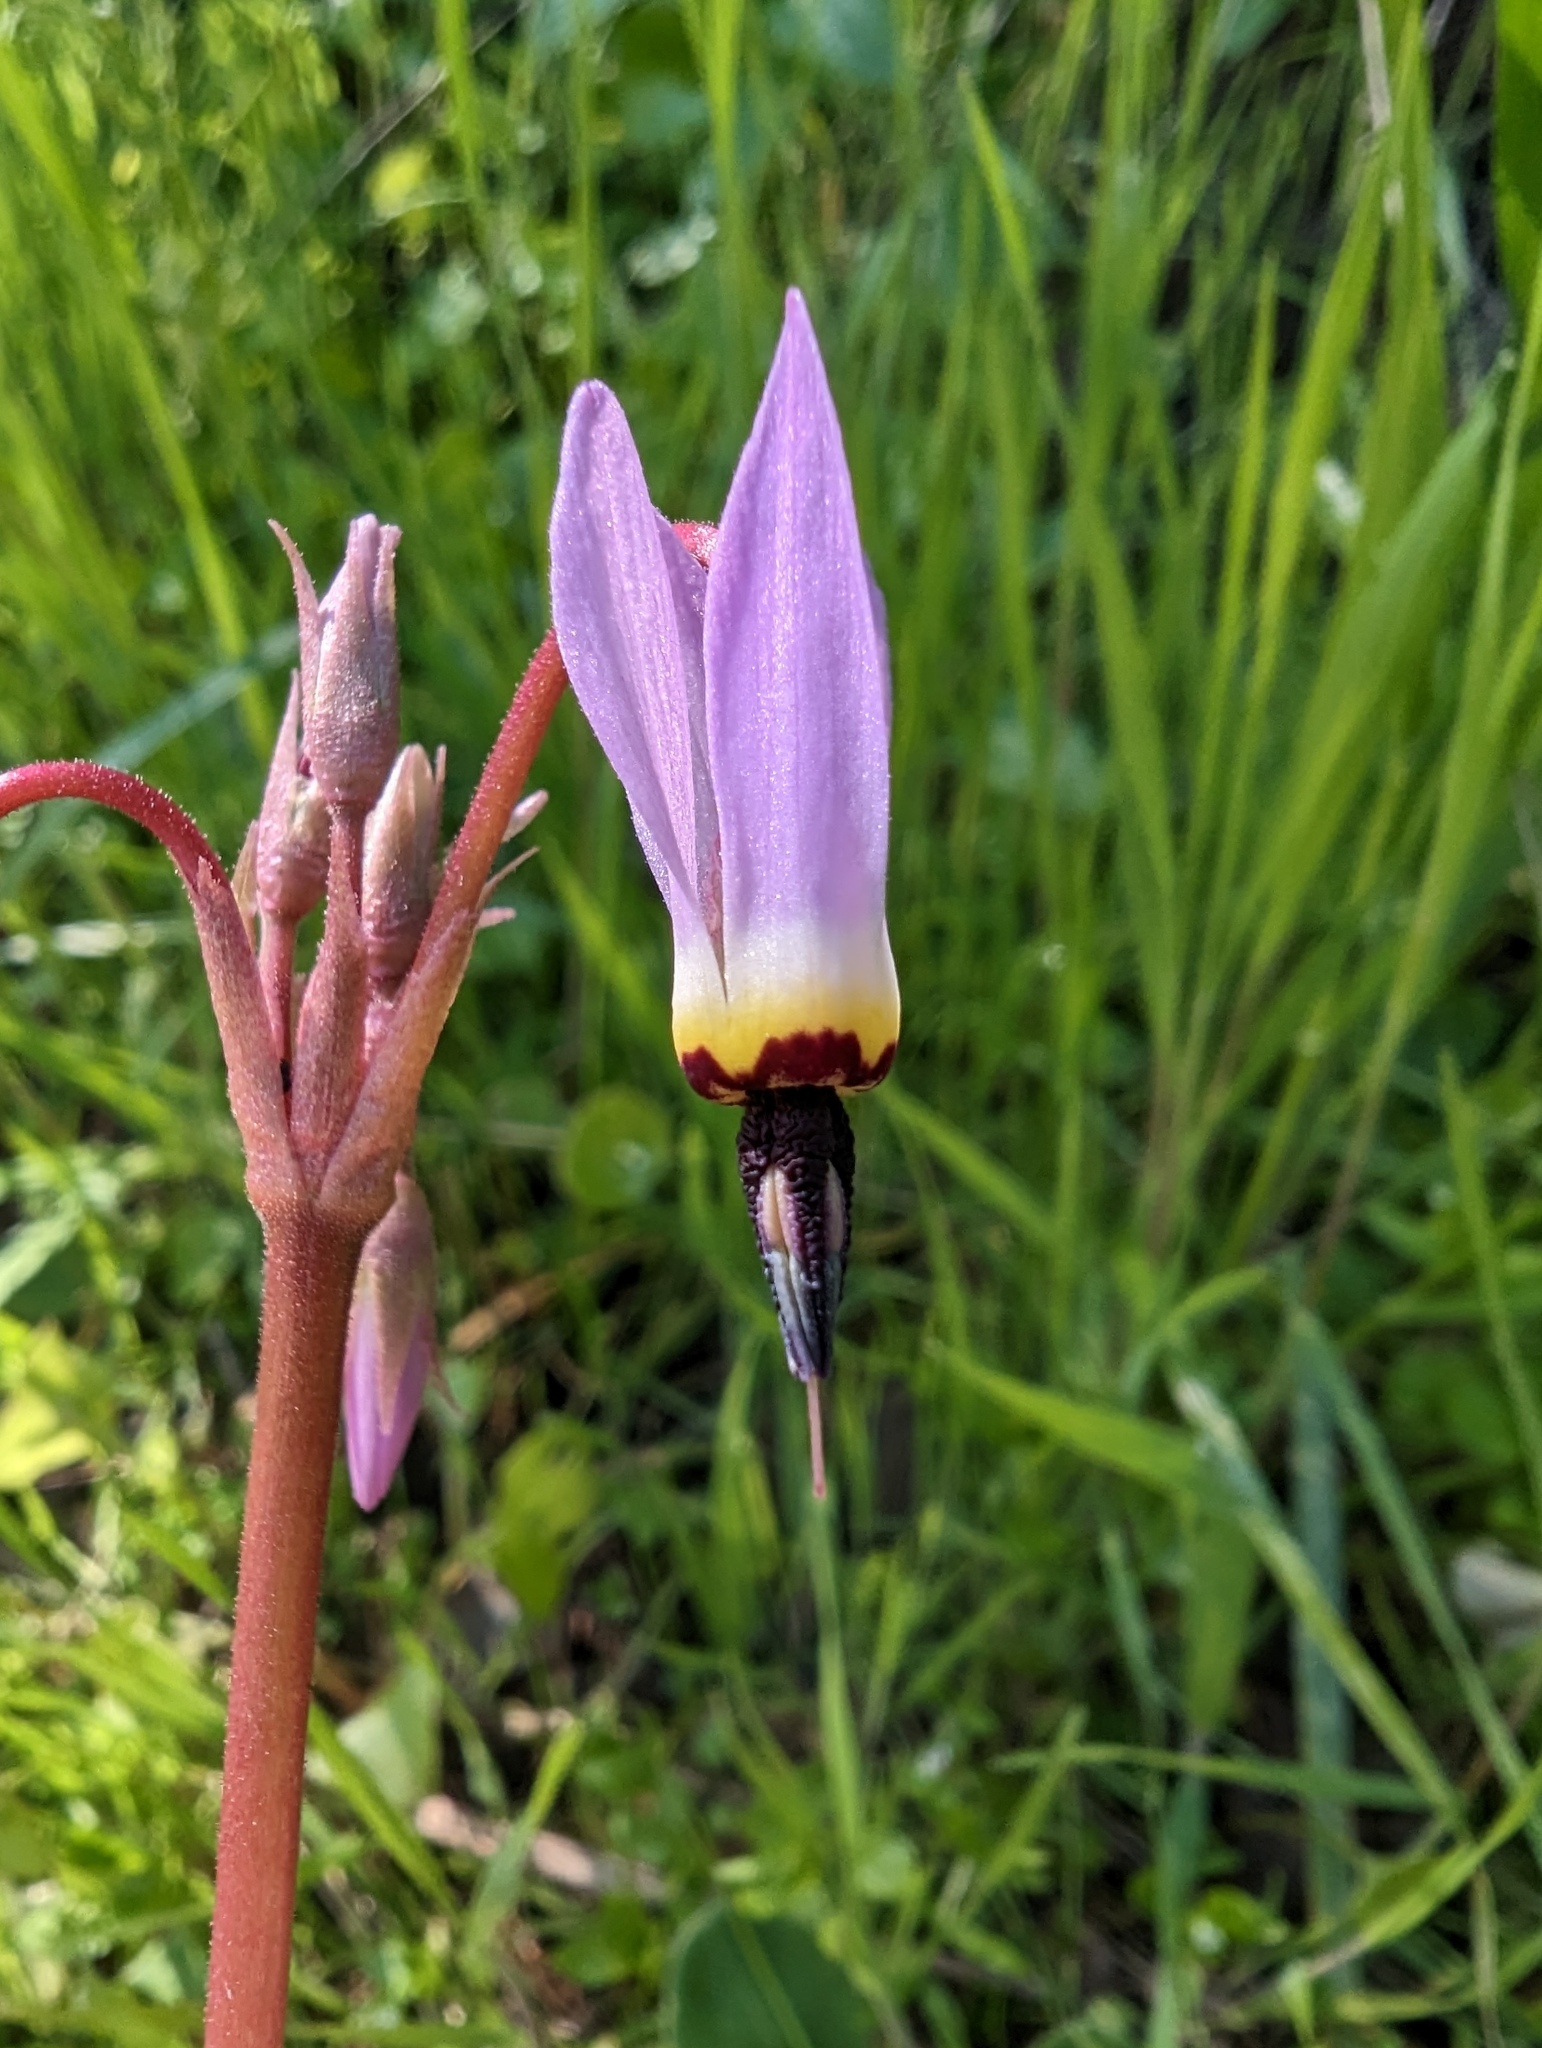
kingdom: Plantae
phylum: Tracheophyta
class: Magnoliopsida
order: Ericales
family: Primulaceae
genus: Dodecatheon
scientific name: Dodecatheon hendersonii
